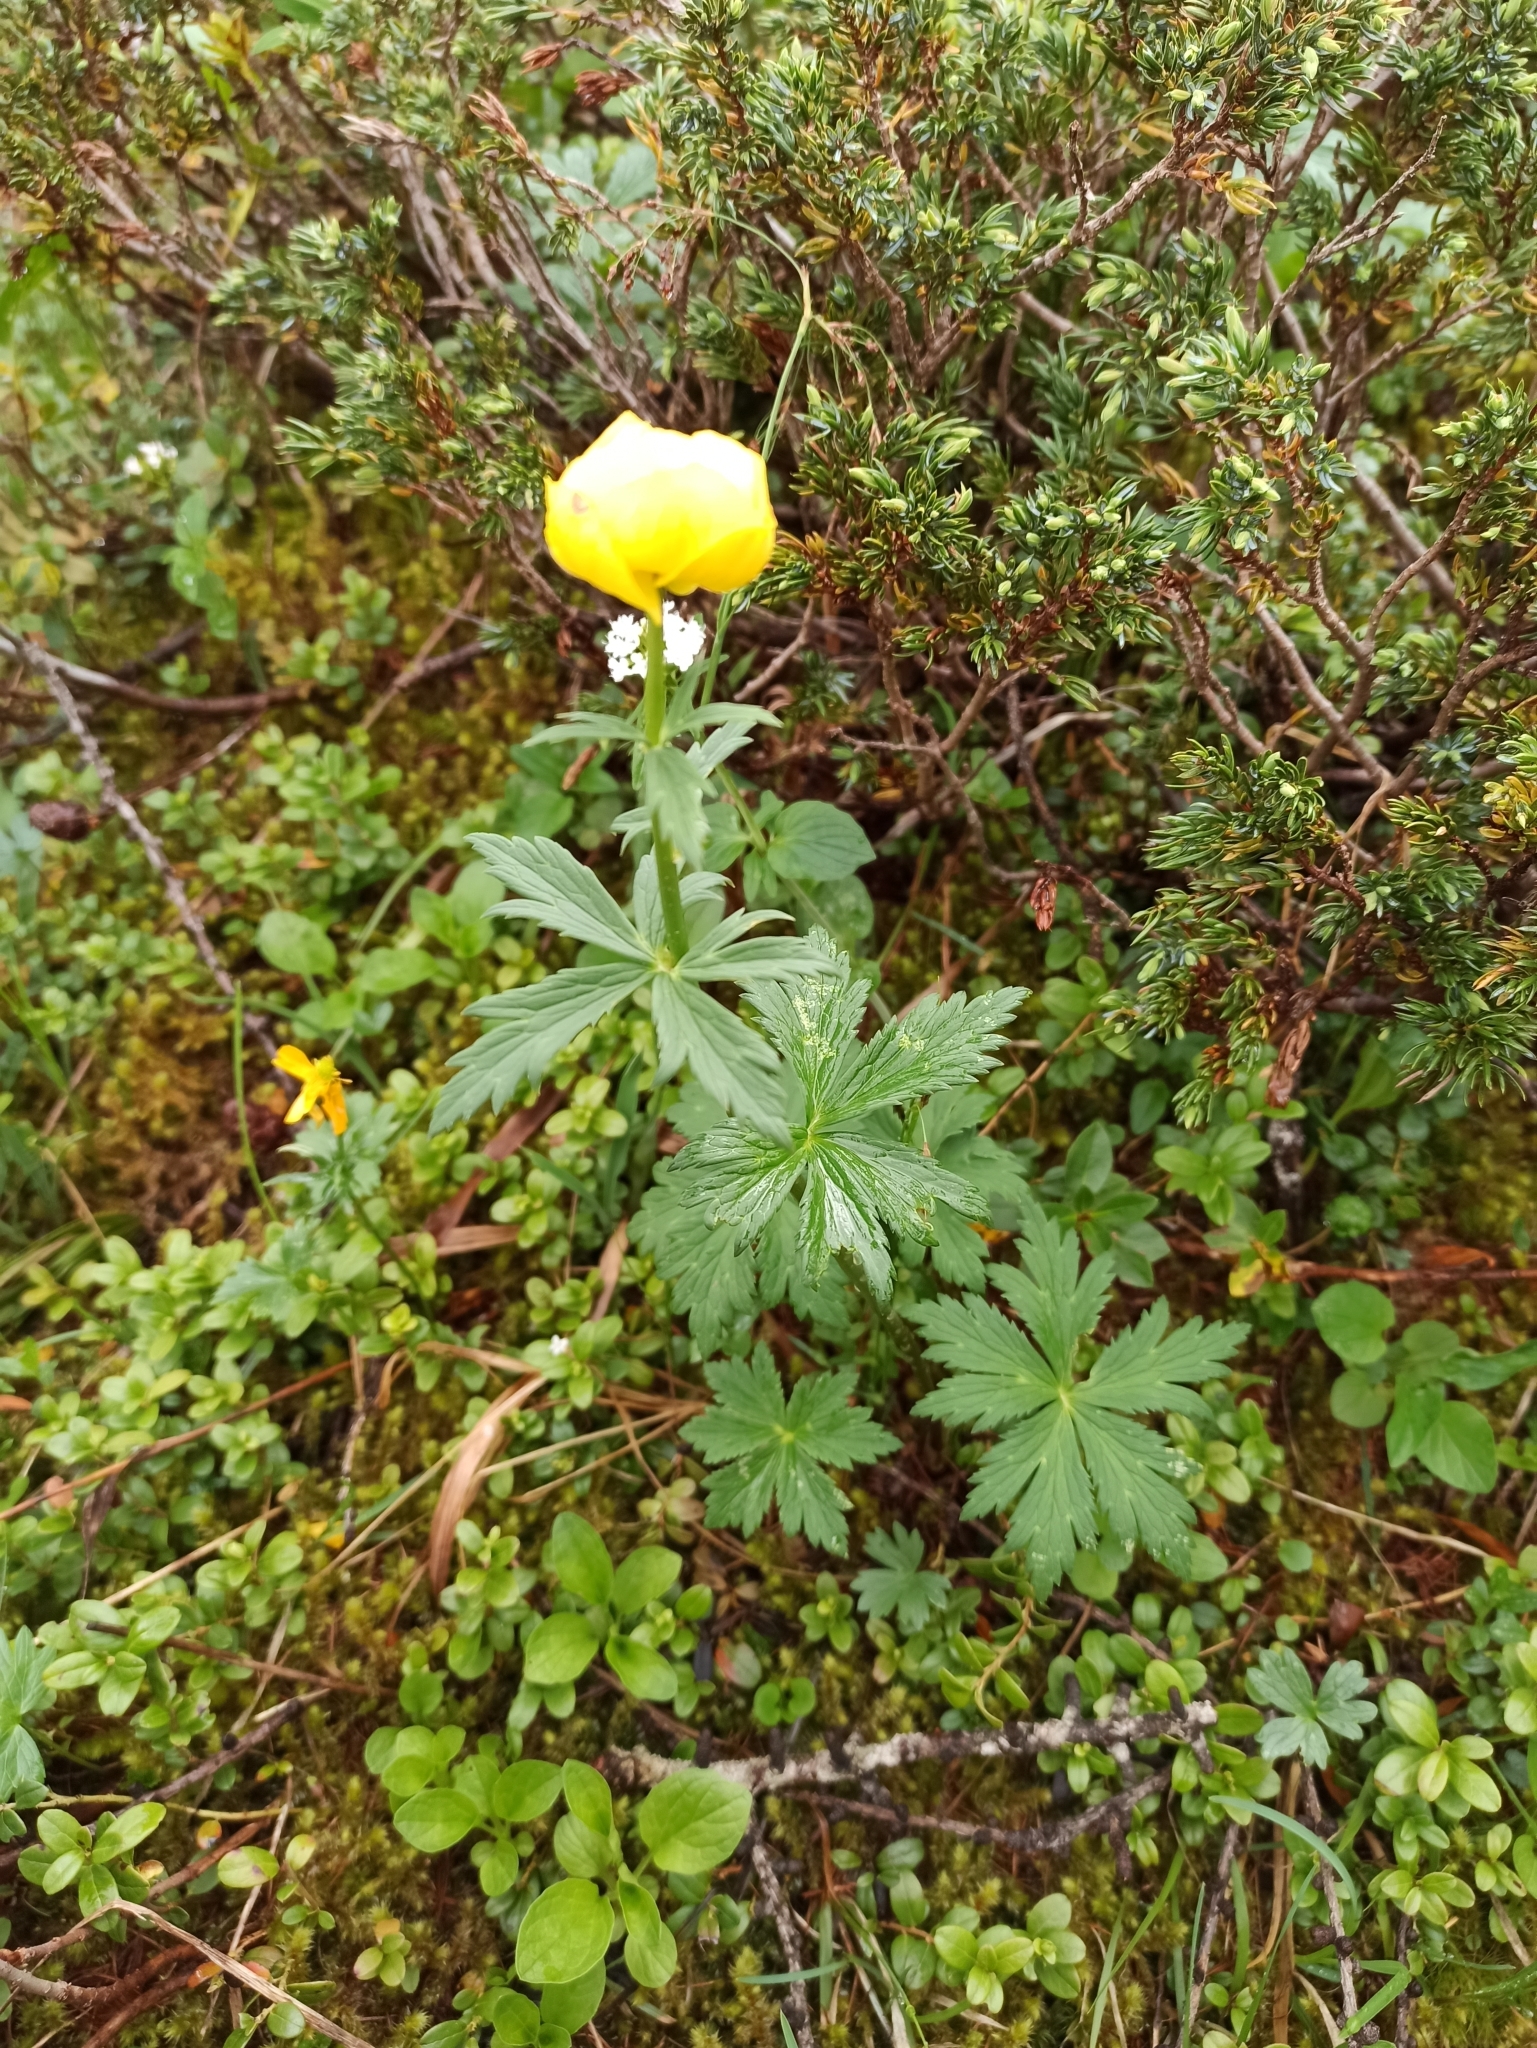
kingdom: Plantae
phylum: Tracheophyta
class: Magnoliopsida
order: Ranunculales
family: Ranunculaceae
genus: Trollius
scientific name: Trollius europaeus
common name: European globeflower
